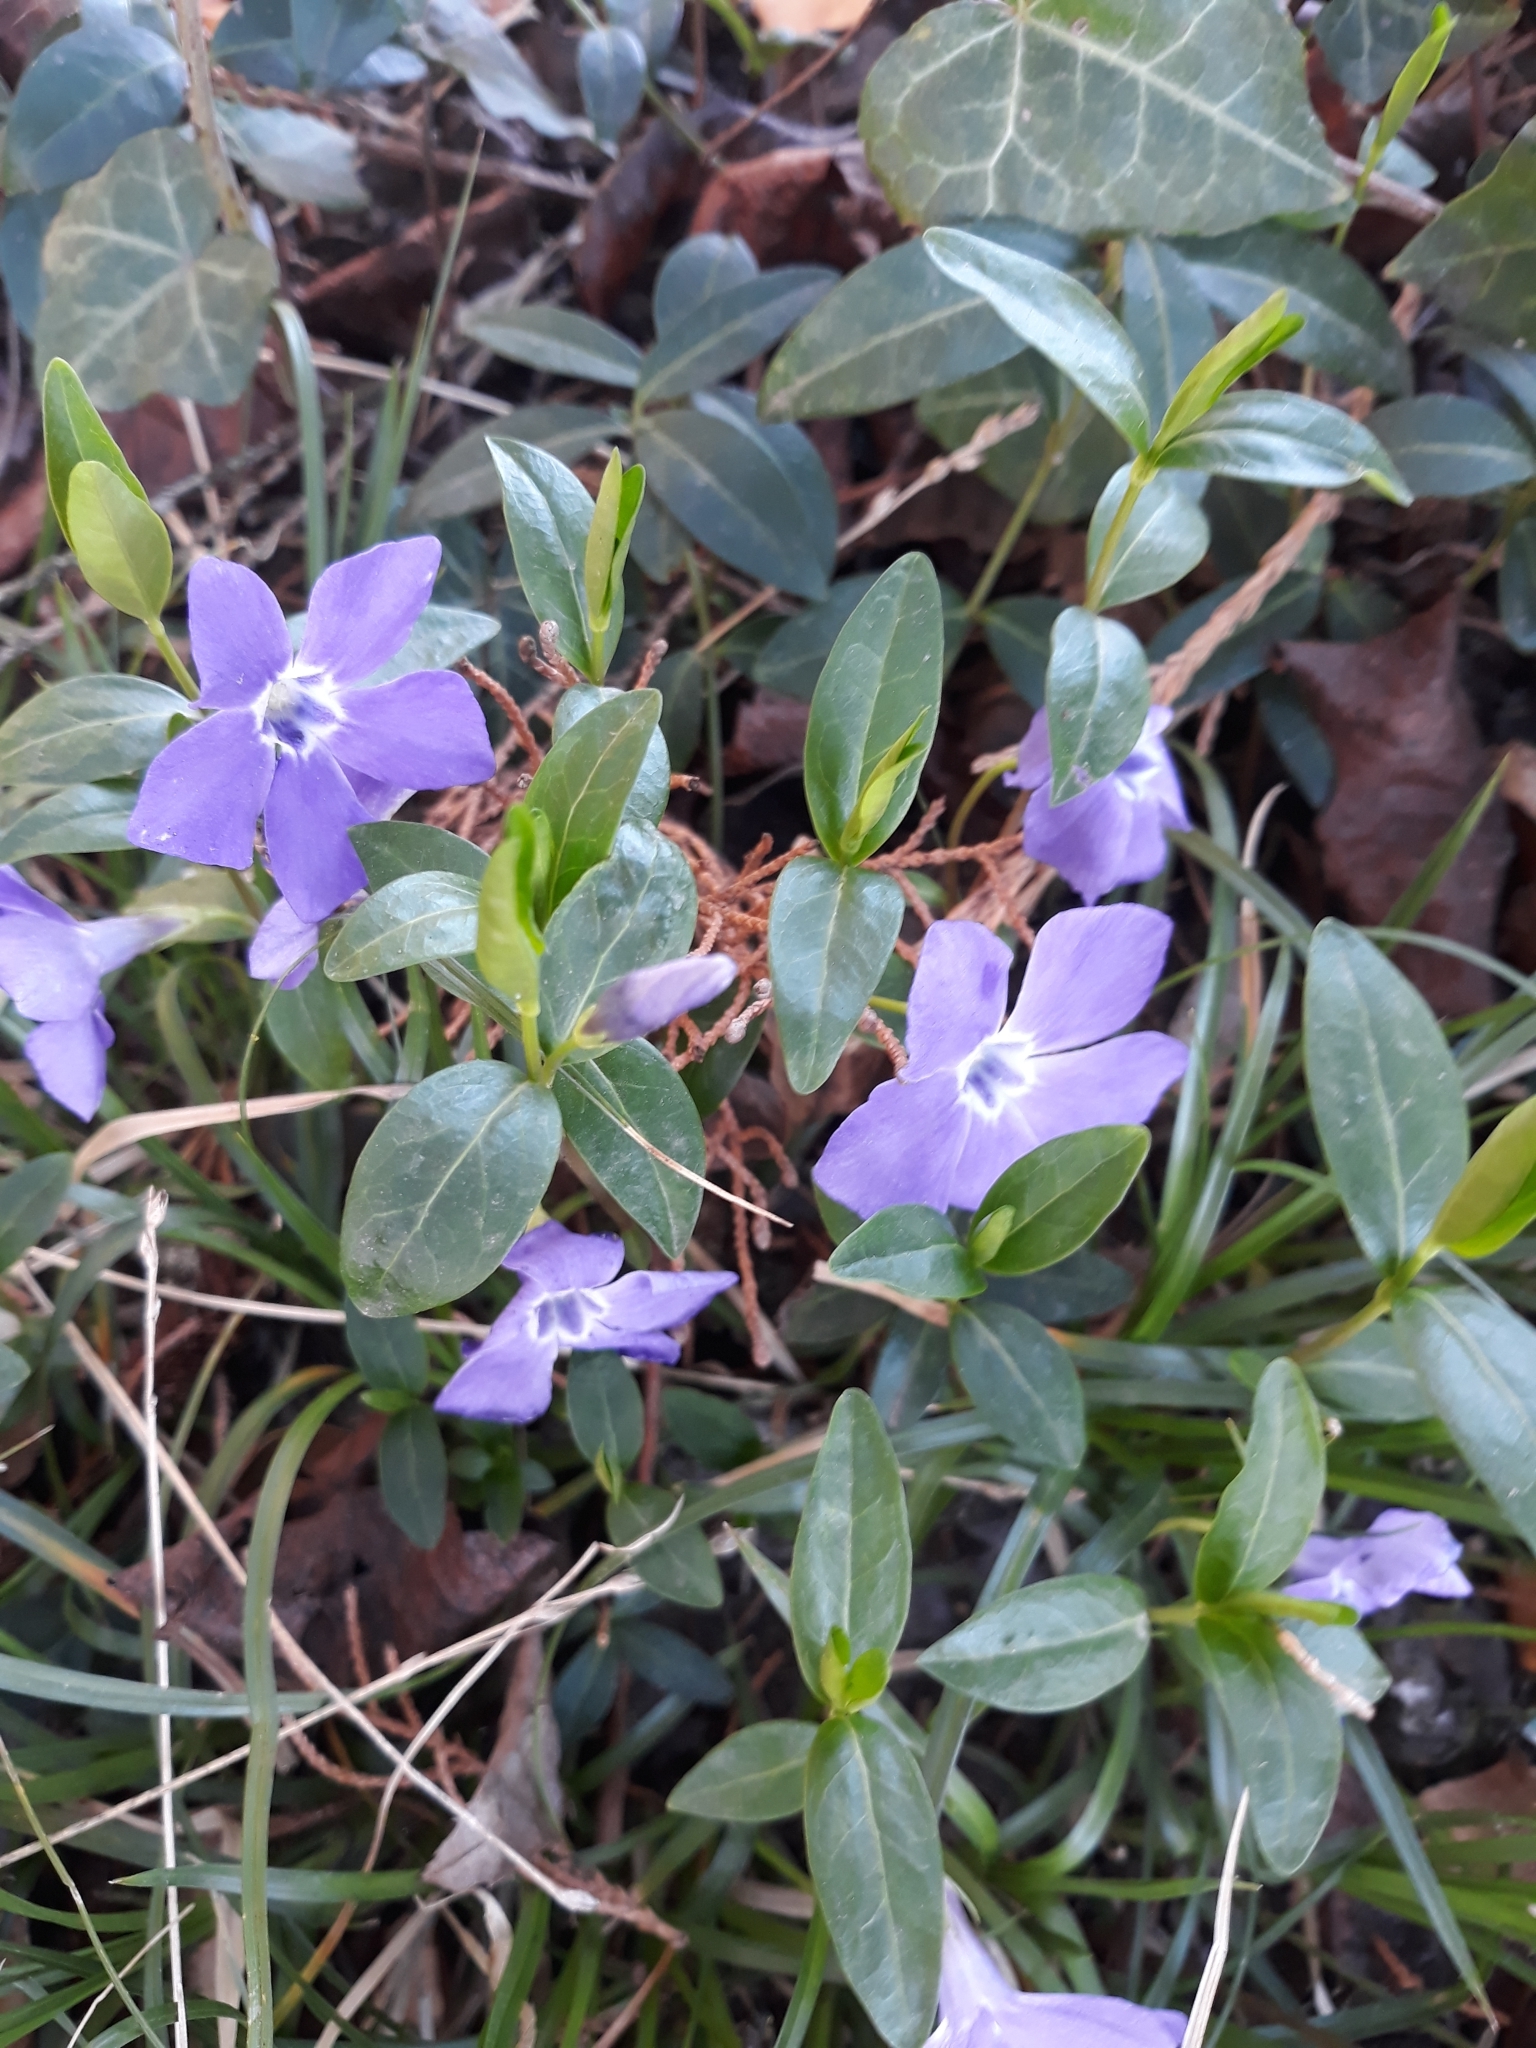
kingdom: Plantae
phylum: Tracheophyta
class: Magnoliopsida
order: Gentianales
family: Apocynaceae
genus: Vinca
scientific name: Vinca minor
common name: Lesser periwinkle
